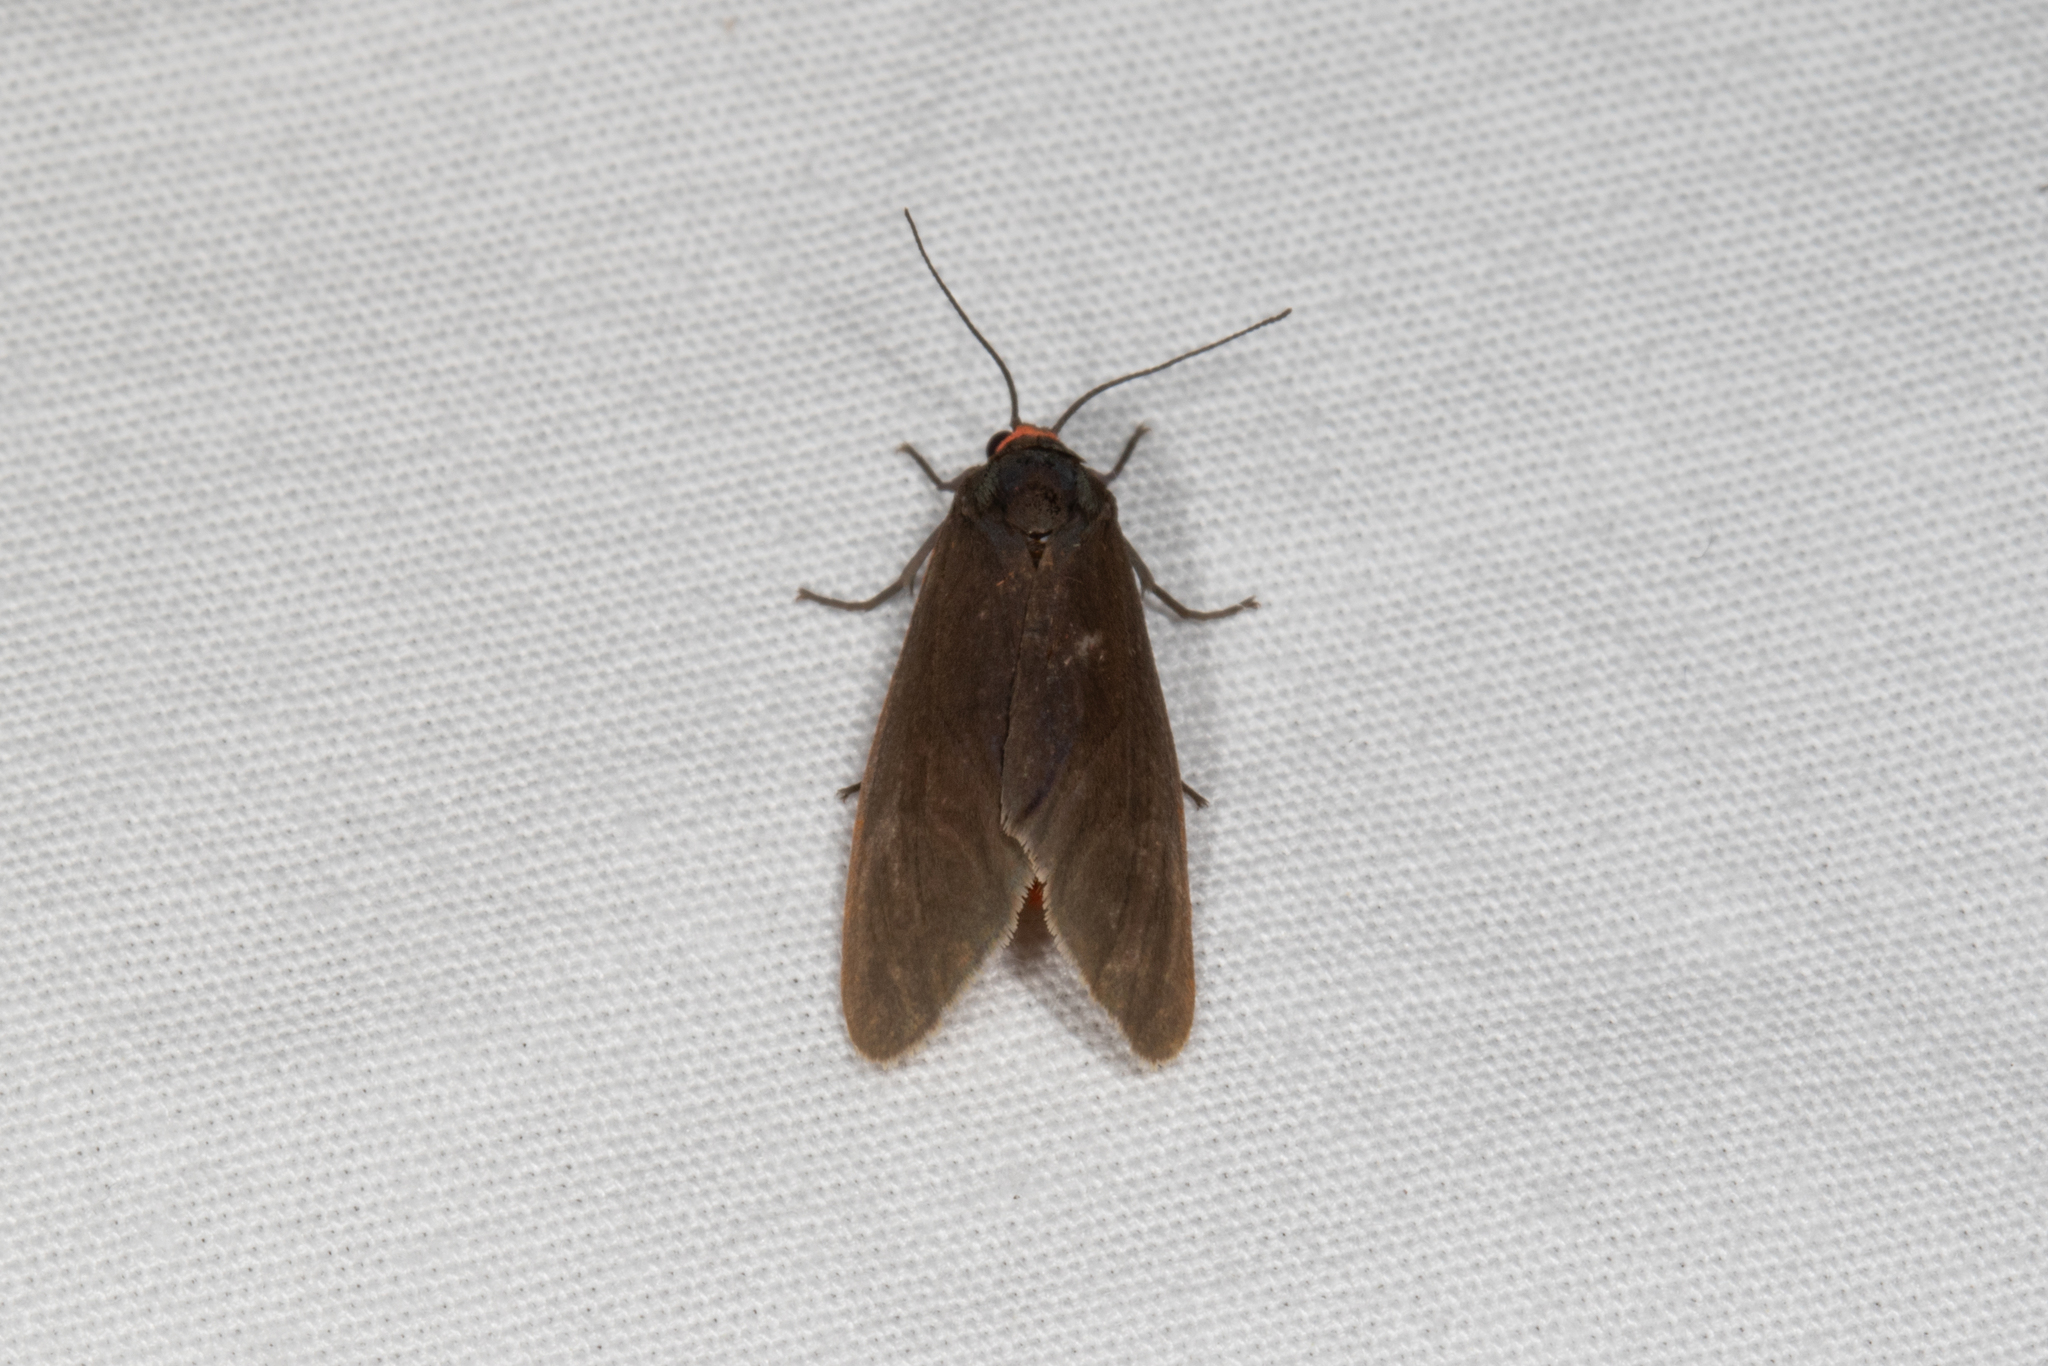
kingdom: Animalia
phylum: Arthropoda
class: Insecta
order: Lepidoptera
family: Erebidae
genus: Virbia
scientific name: Virbia laeta
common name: Joyful holomelina moth
